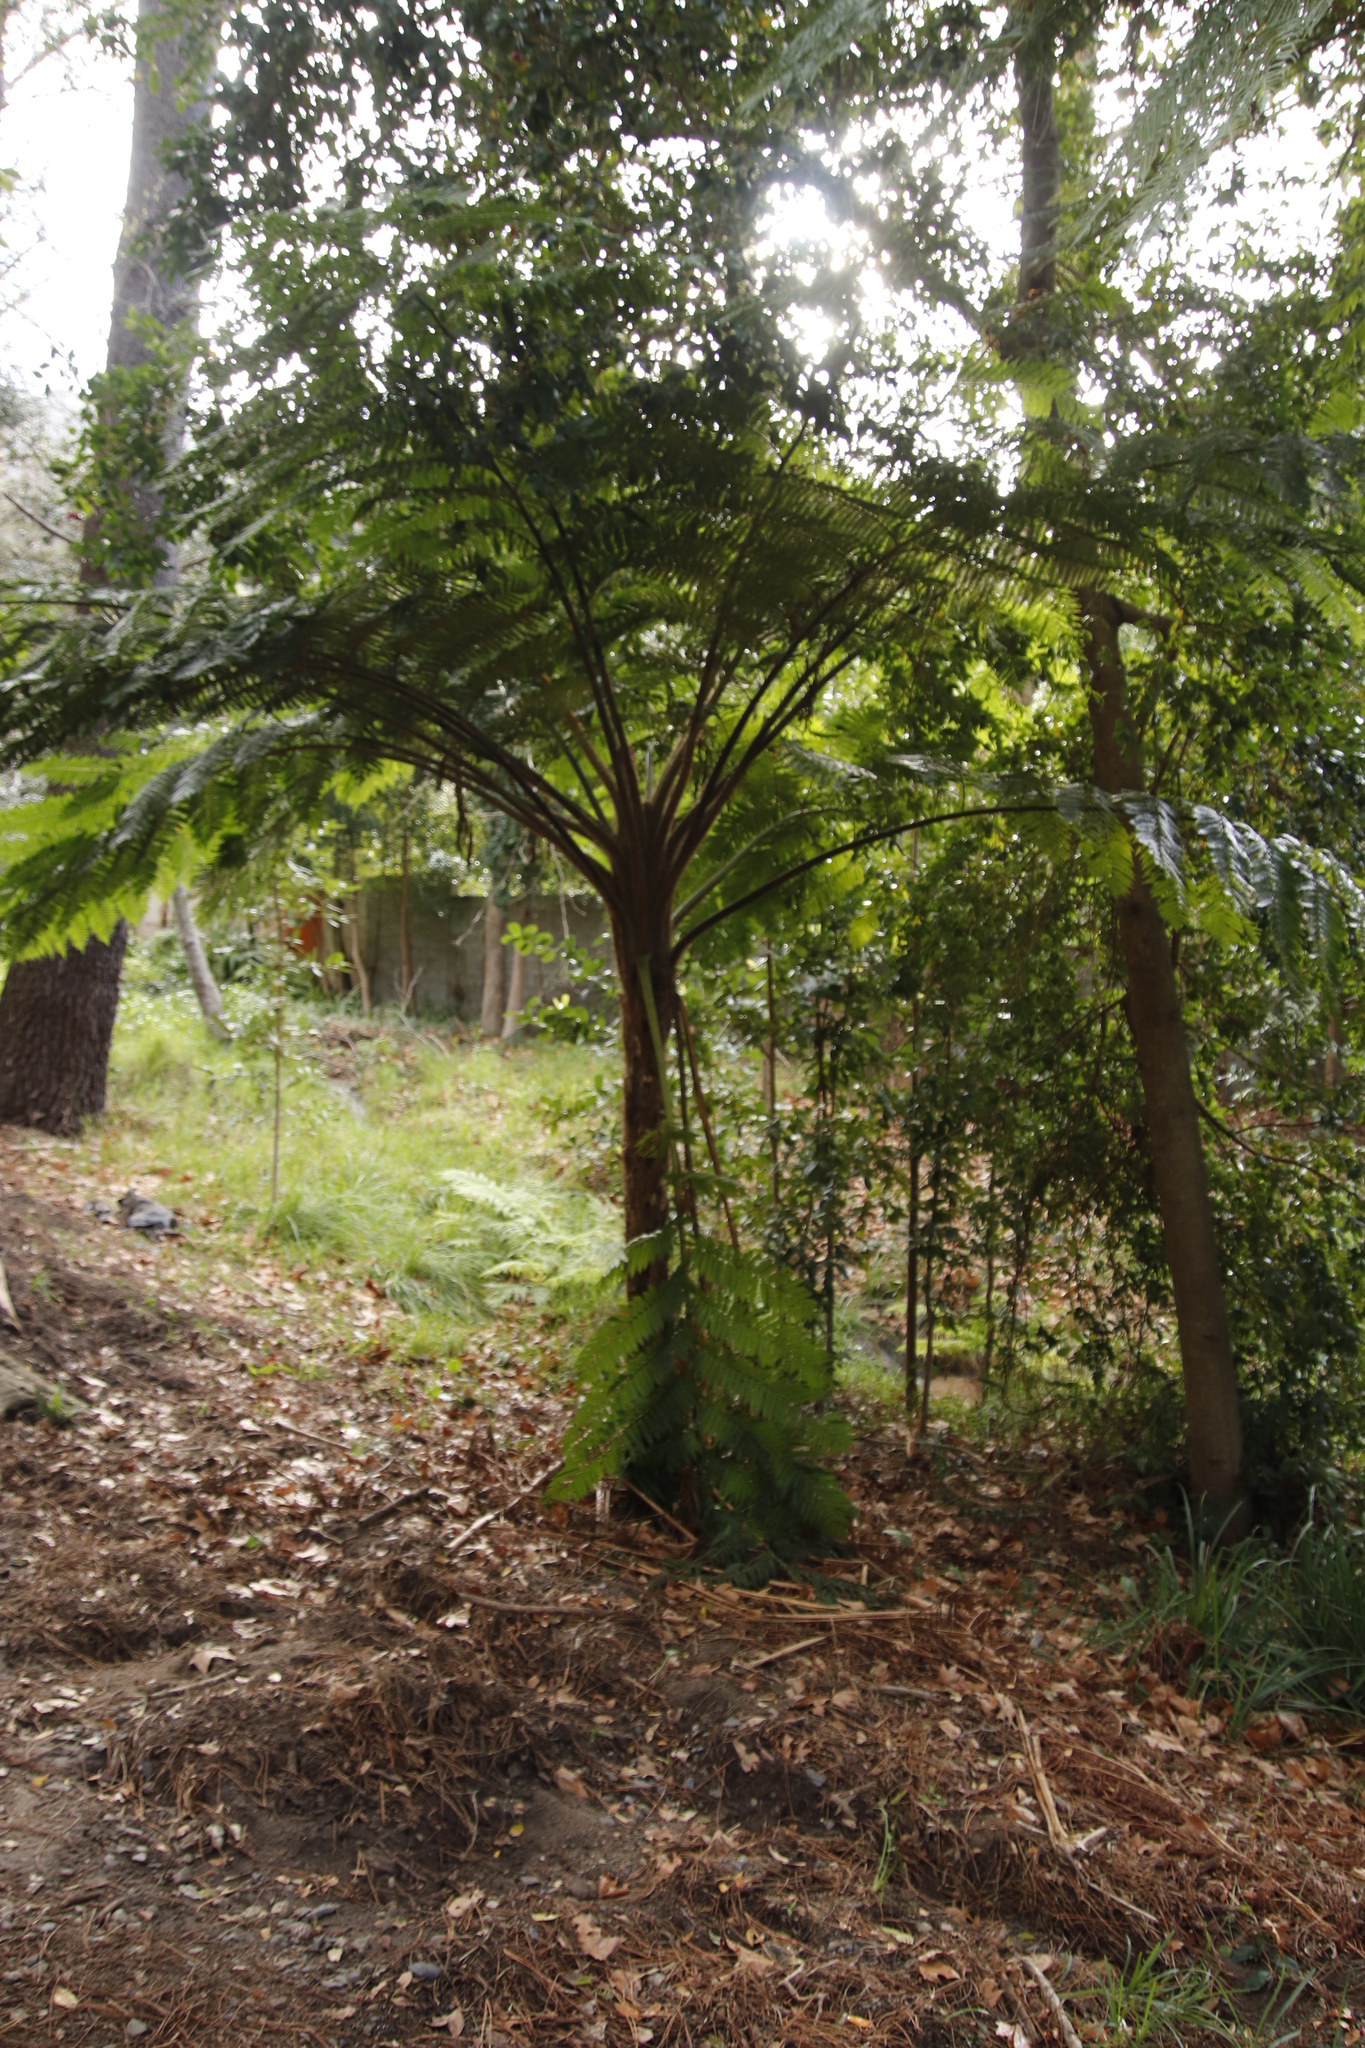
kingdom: Plantae
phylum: Tracheophyta
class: Polypodiopsida
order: Cyatheales
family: Cyatheaceae
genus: Sphaeropteris
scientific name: Sphaeropteris cooperi
